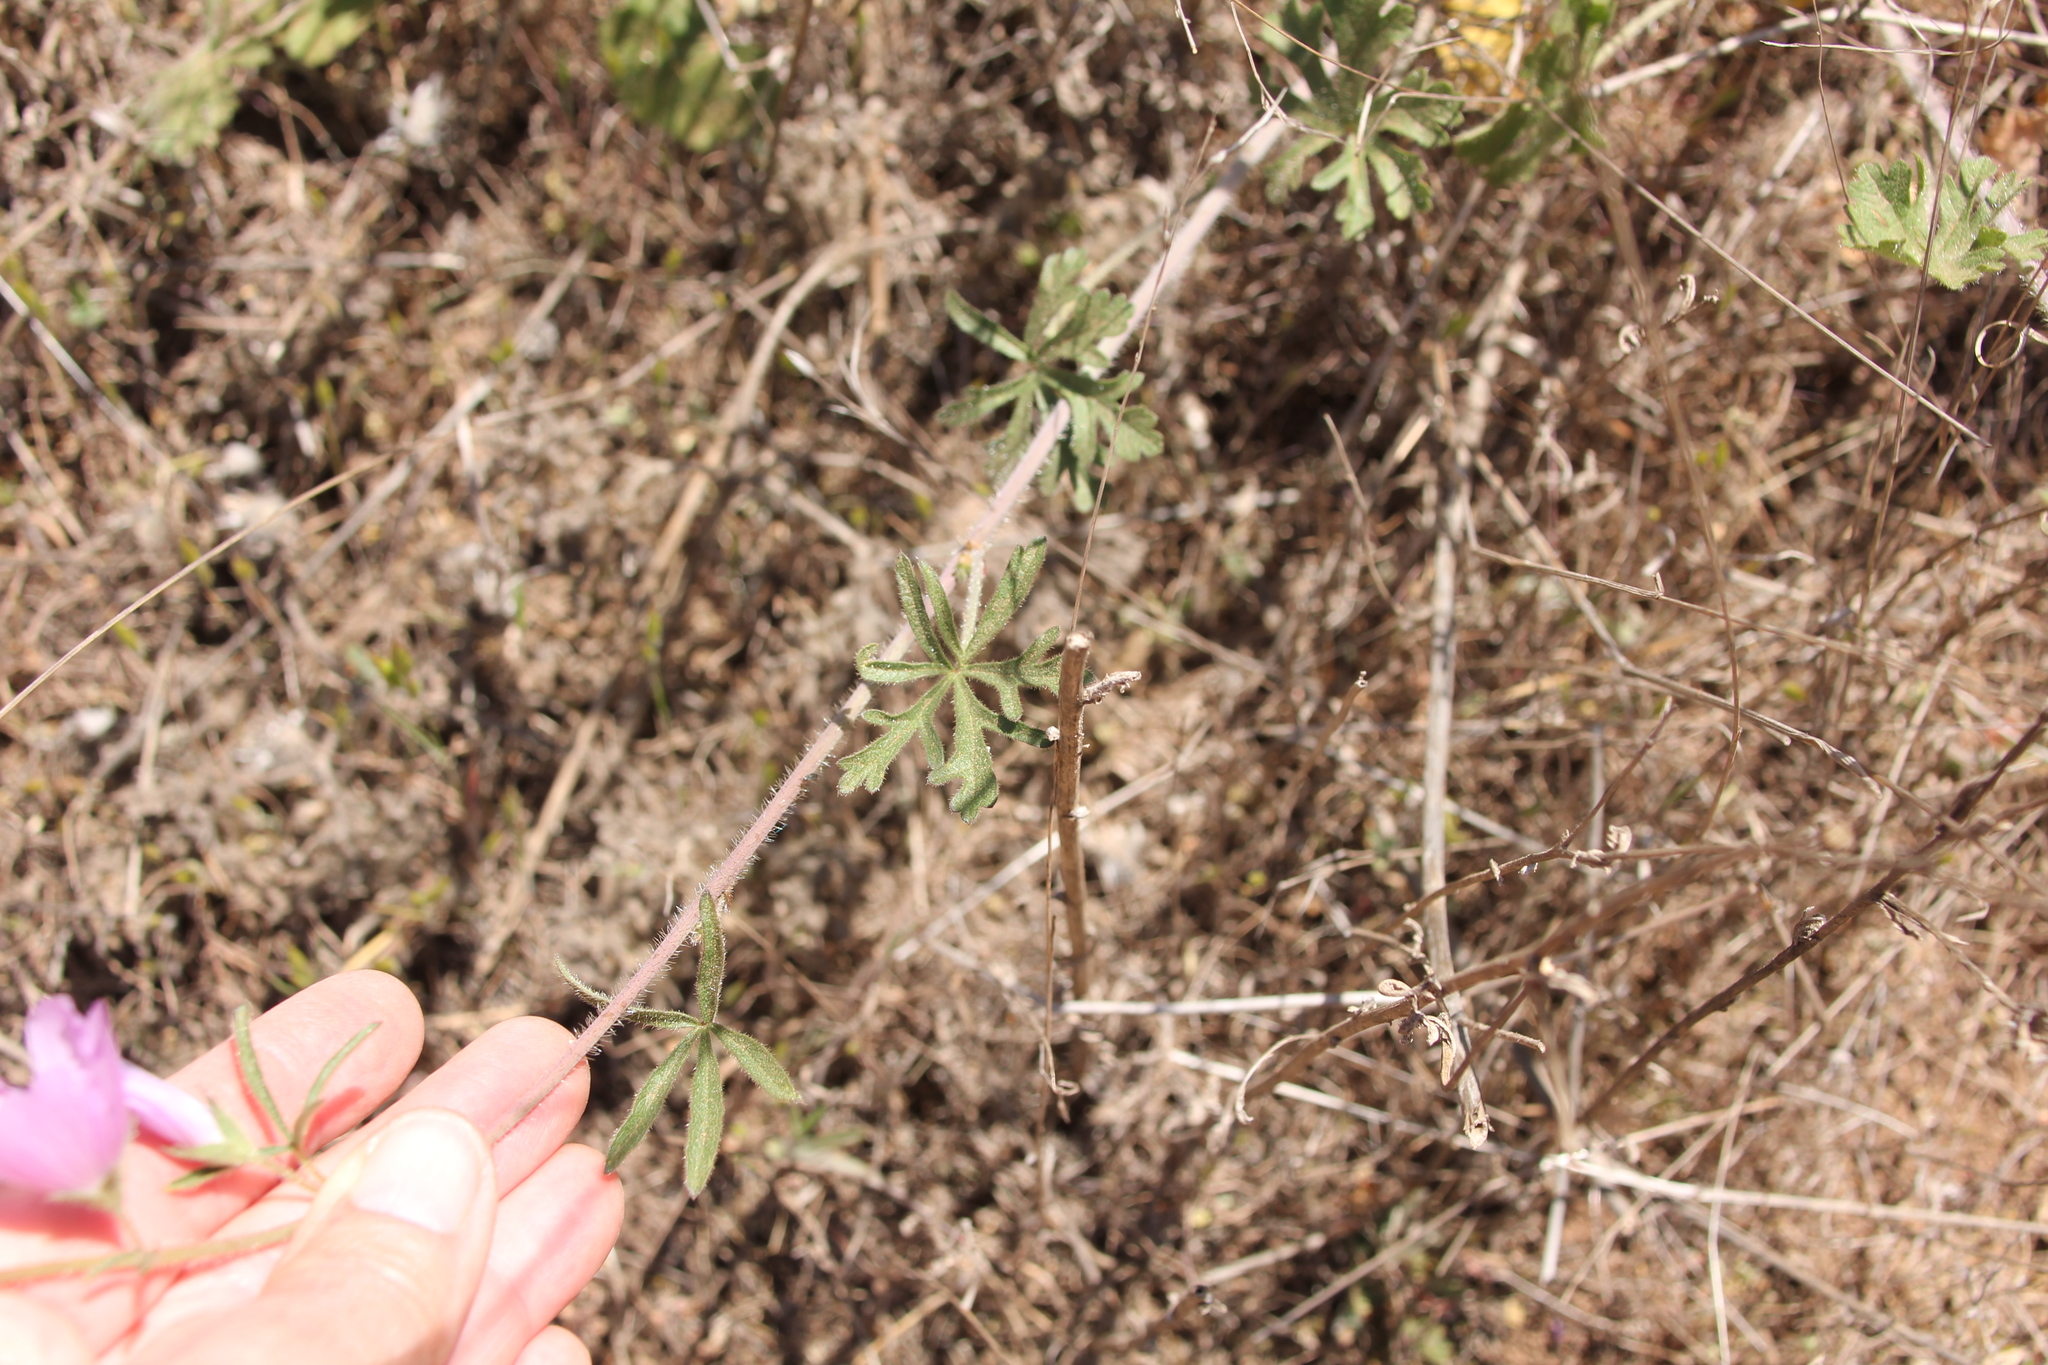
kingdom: Plantae
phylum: Tracheophyta
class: Magnoliopsida
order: Malvales
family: Malvaceae
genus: Sidalcea
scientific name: Sidalcea sparsifolia
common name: Southern checkerbloom
